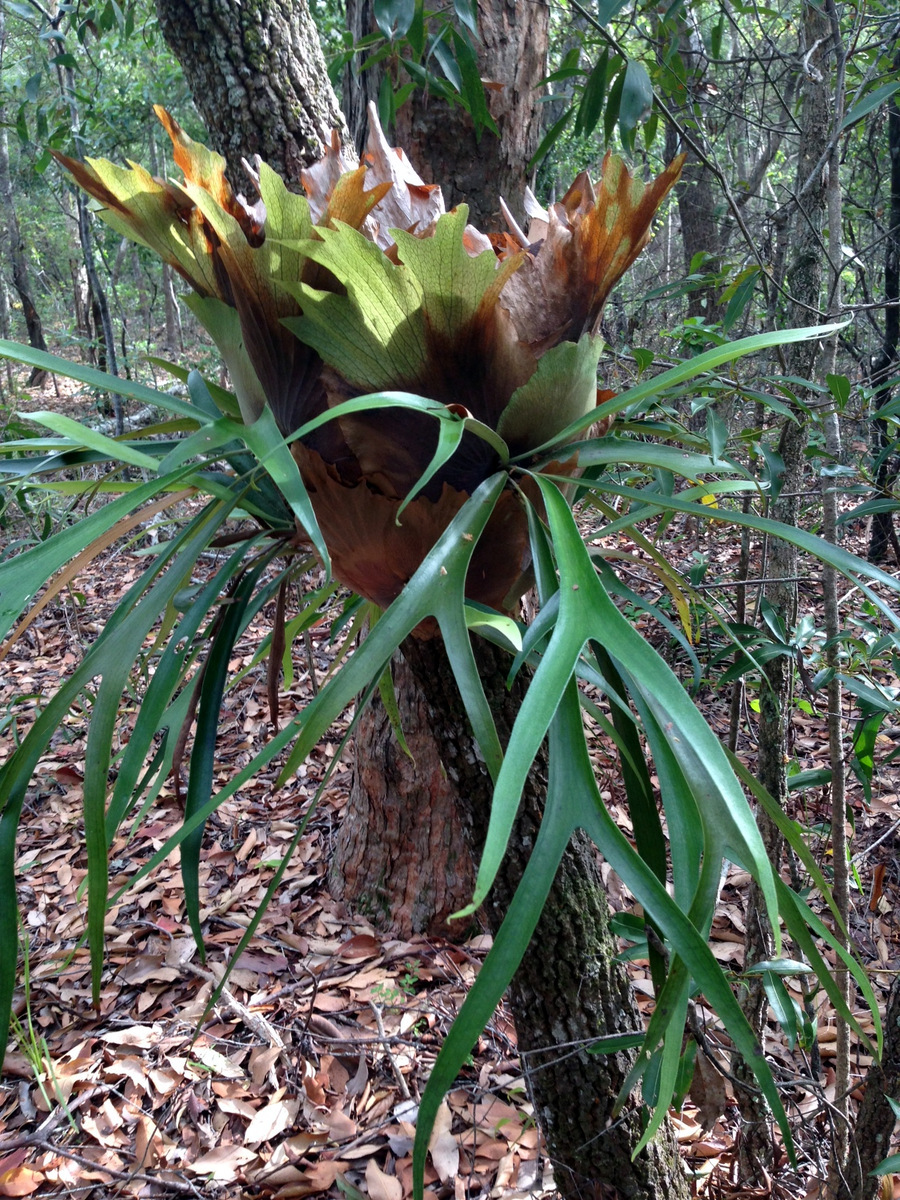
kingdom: Plantae
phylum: Tracheophyta
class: Polypodiopsida
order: Polypodiales
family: Polypodiaceae
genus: Platycerium
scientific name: Platycerium bifurcatum
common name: Elkhorn fern
